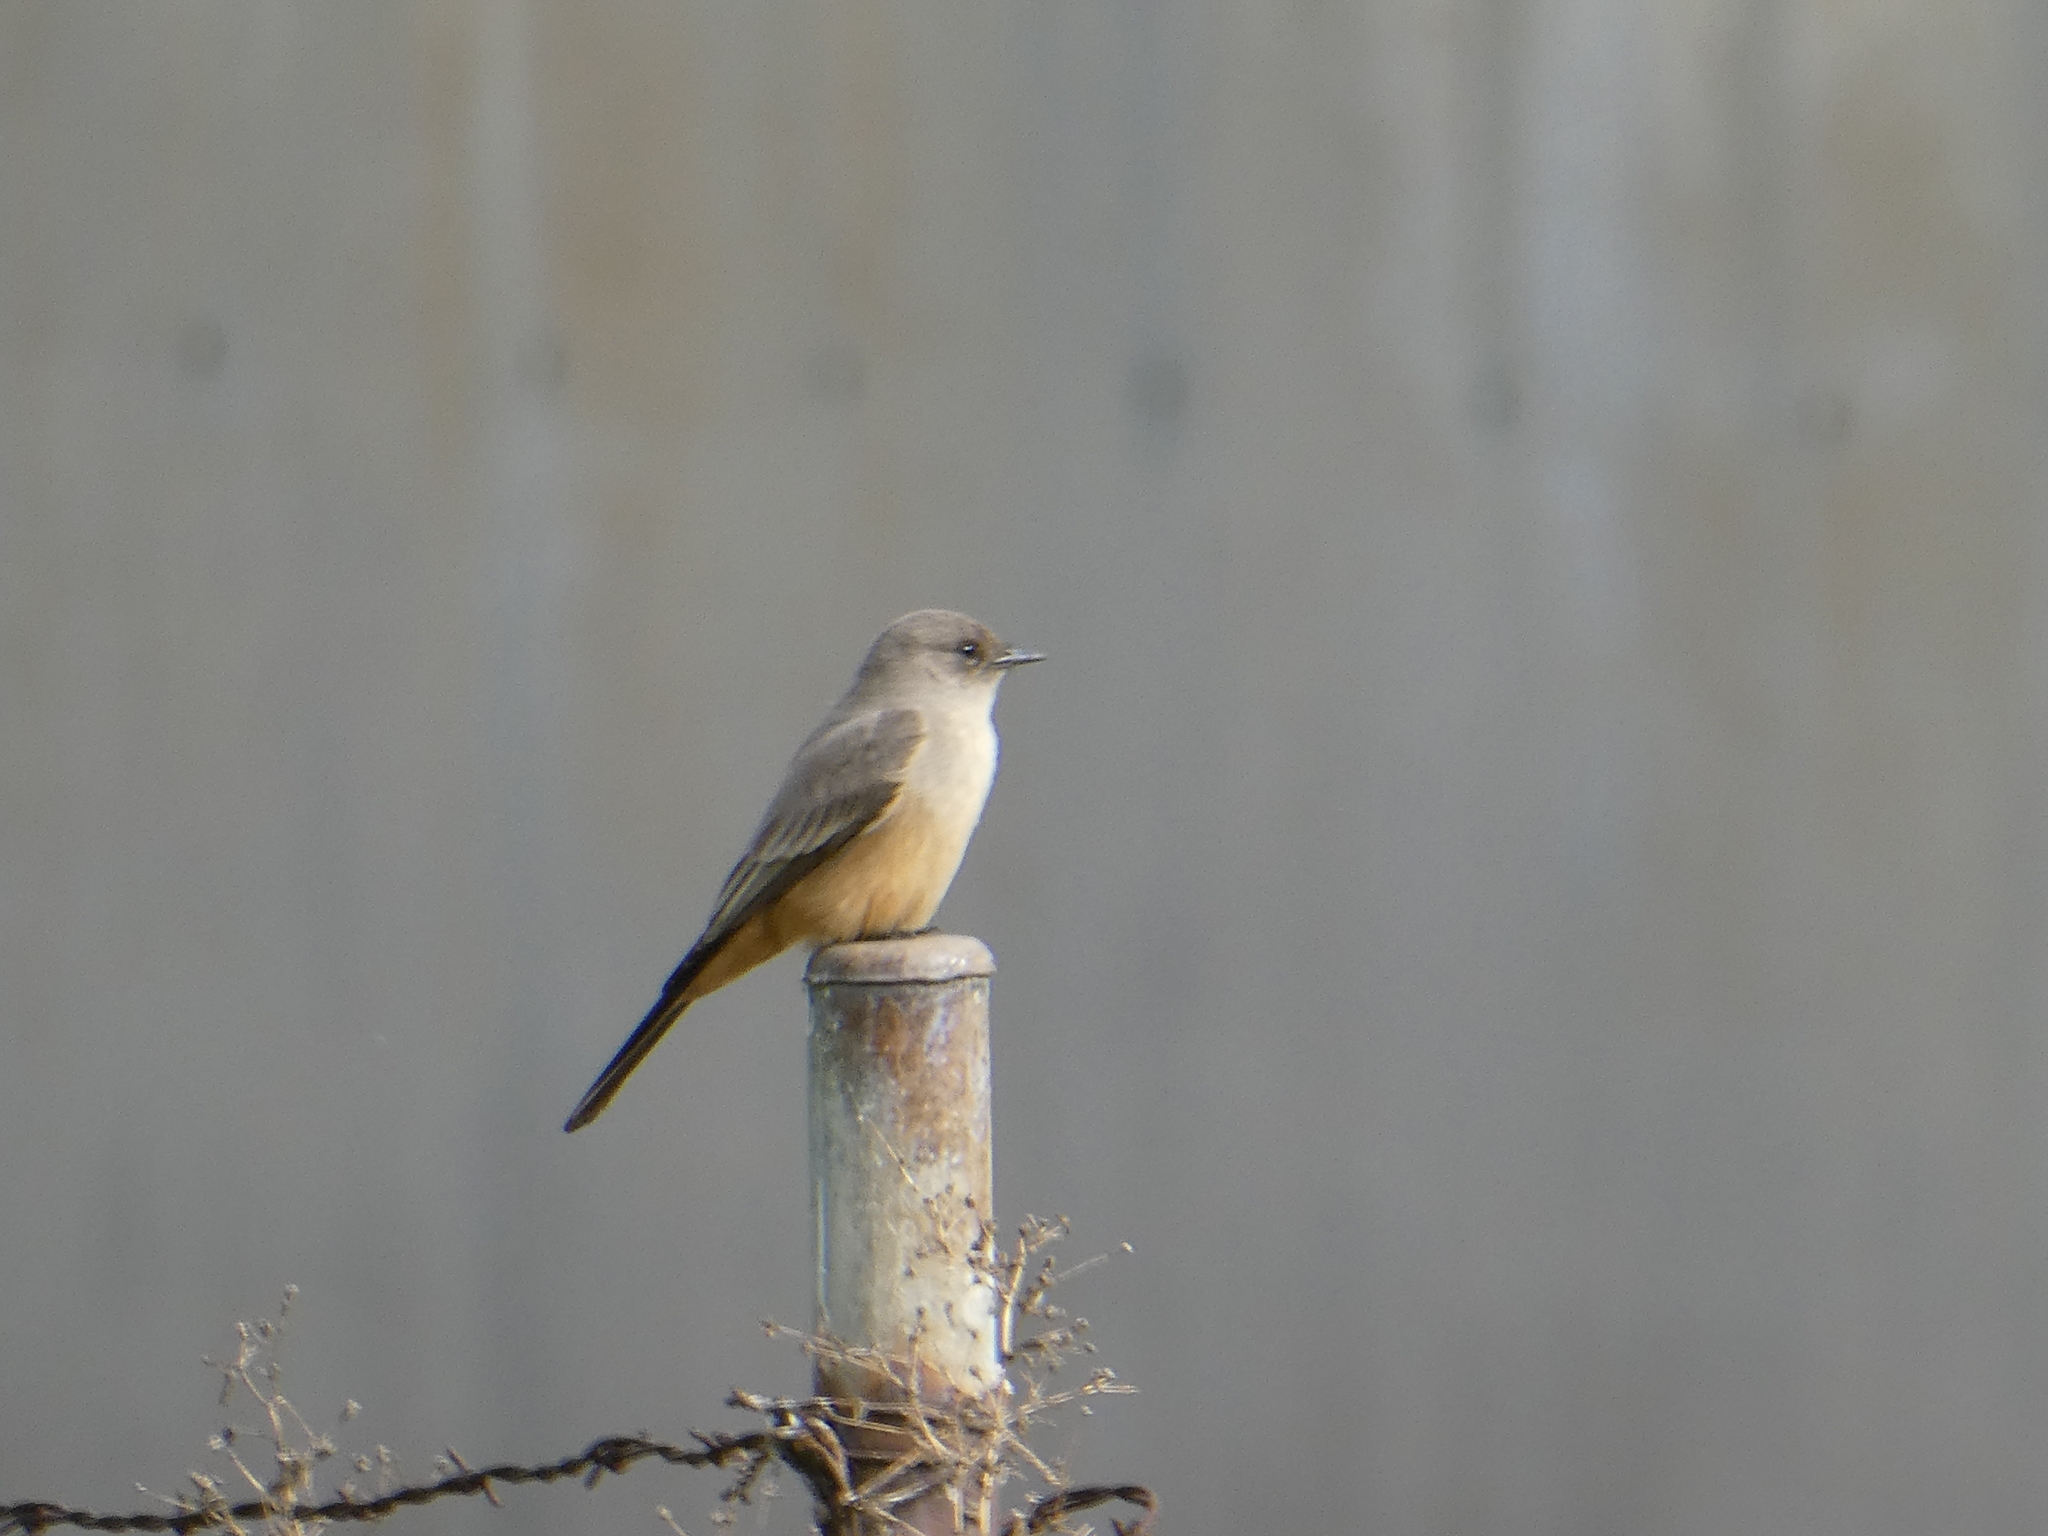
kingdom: Animalia
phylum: Chordata
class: Aves
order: Passeriformes
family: Tyrannidae
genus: Sayornis
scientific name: Sayornis saya
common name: Say's phoebe
